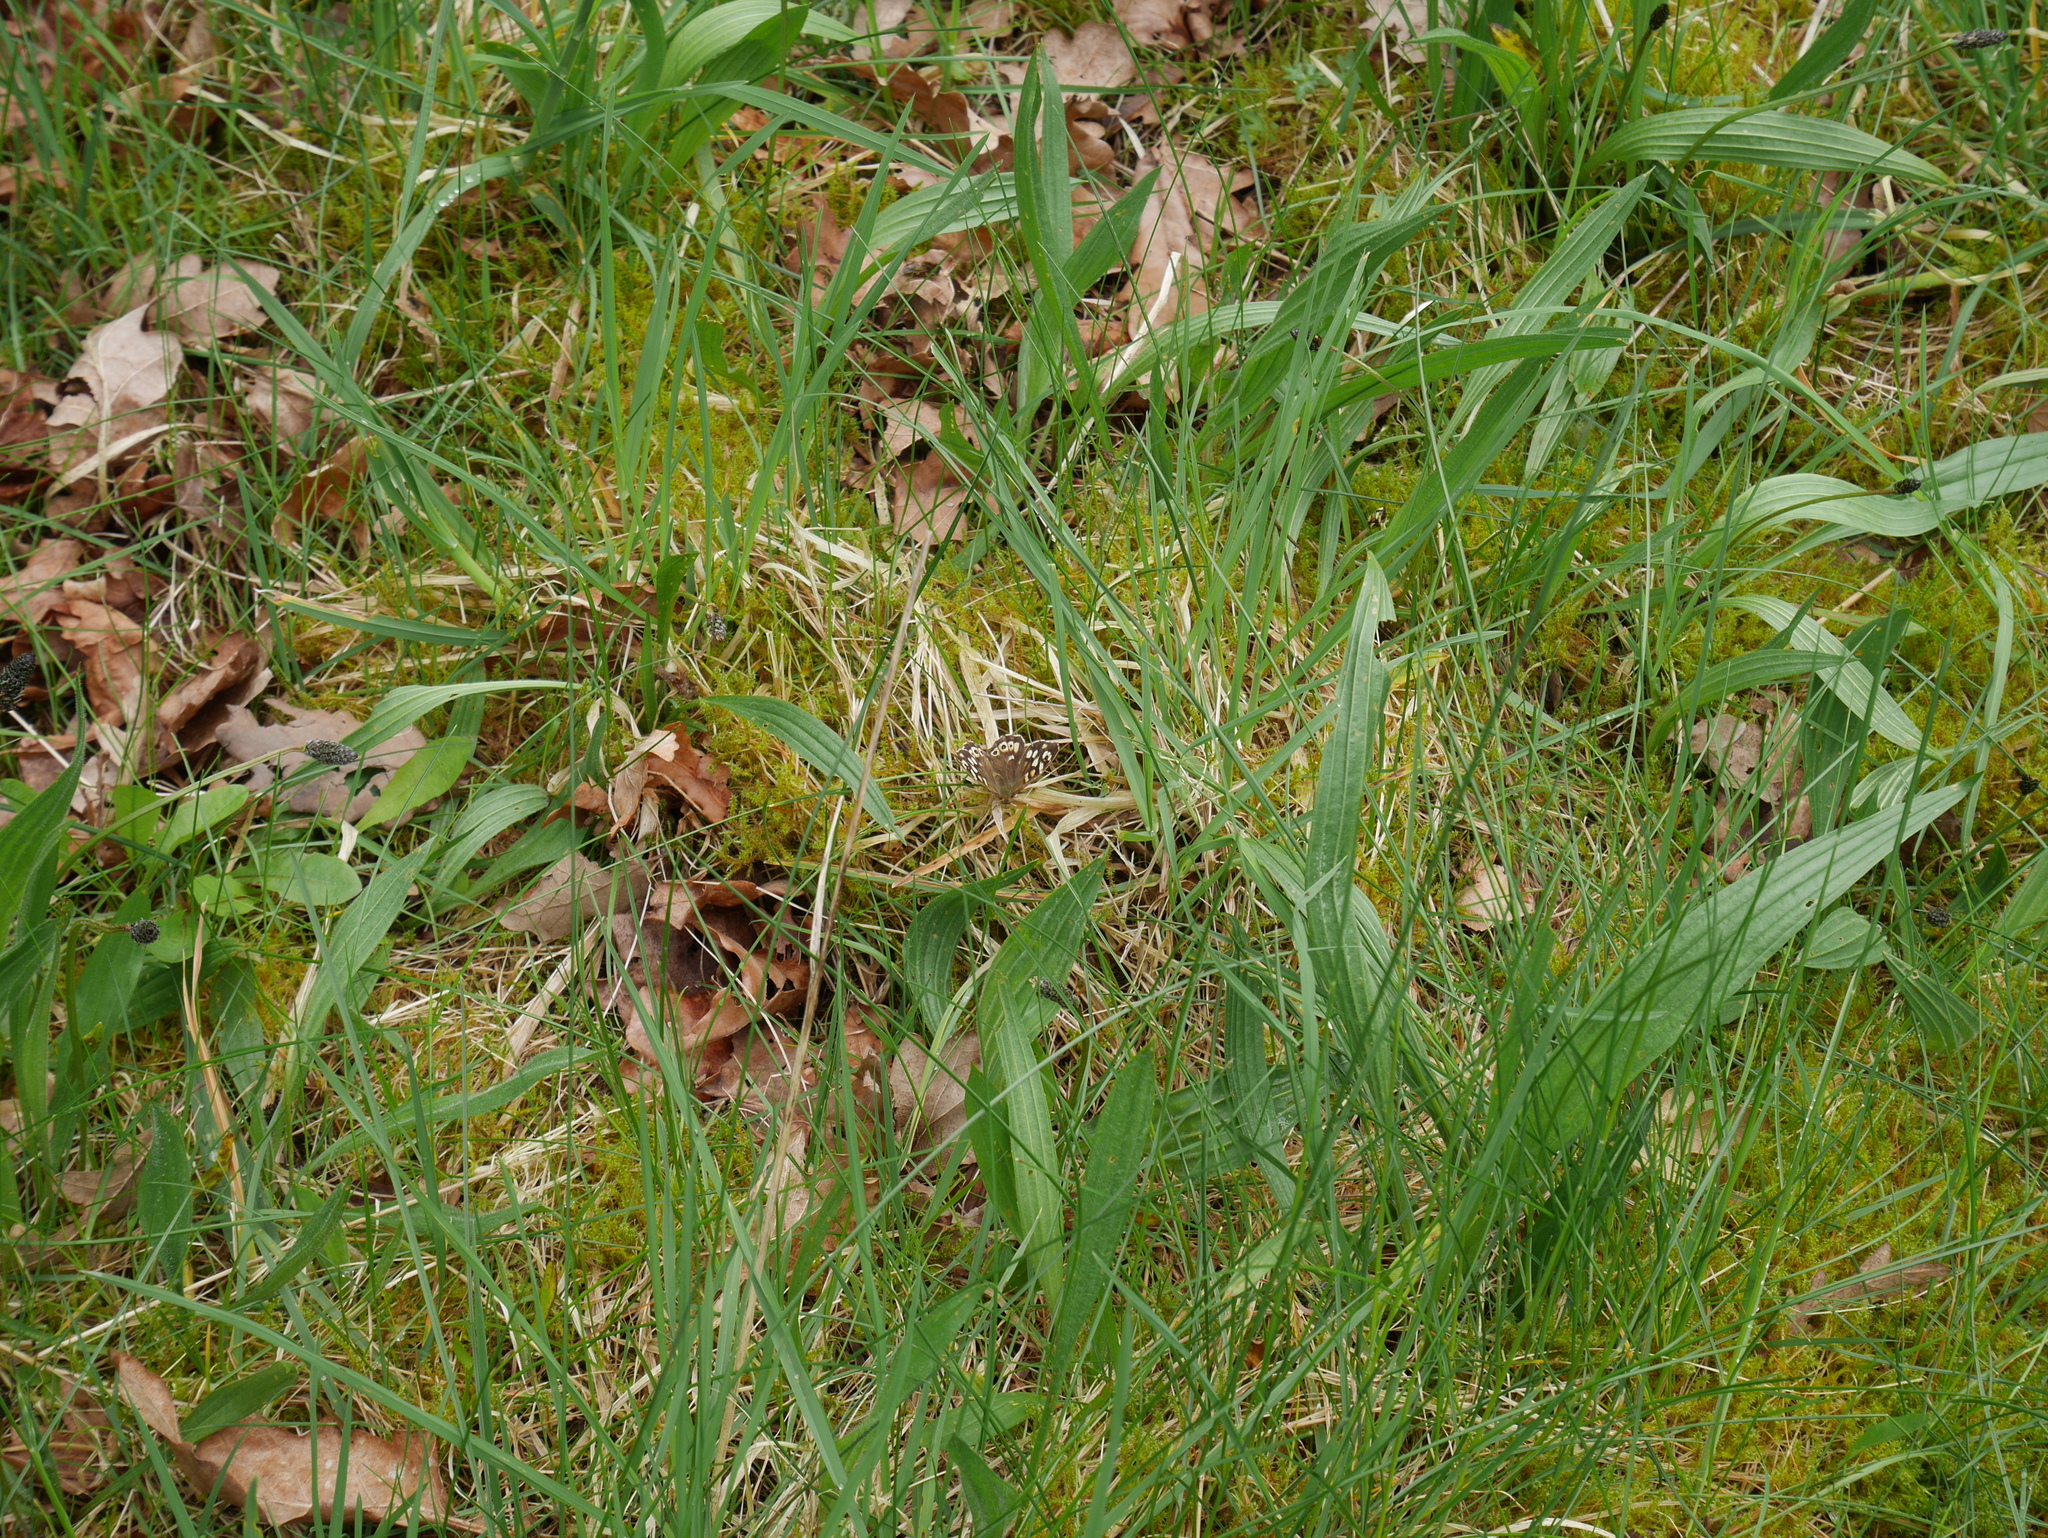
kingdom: Animalia
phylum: Arthropoda
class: Insecta
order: Lepidoptera
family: Nymphalidae
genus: Pararge
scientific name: Pararge aegeria
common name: Speckled wood
